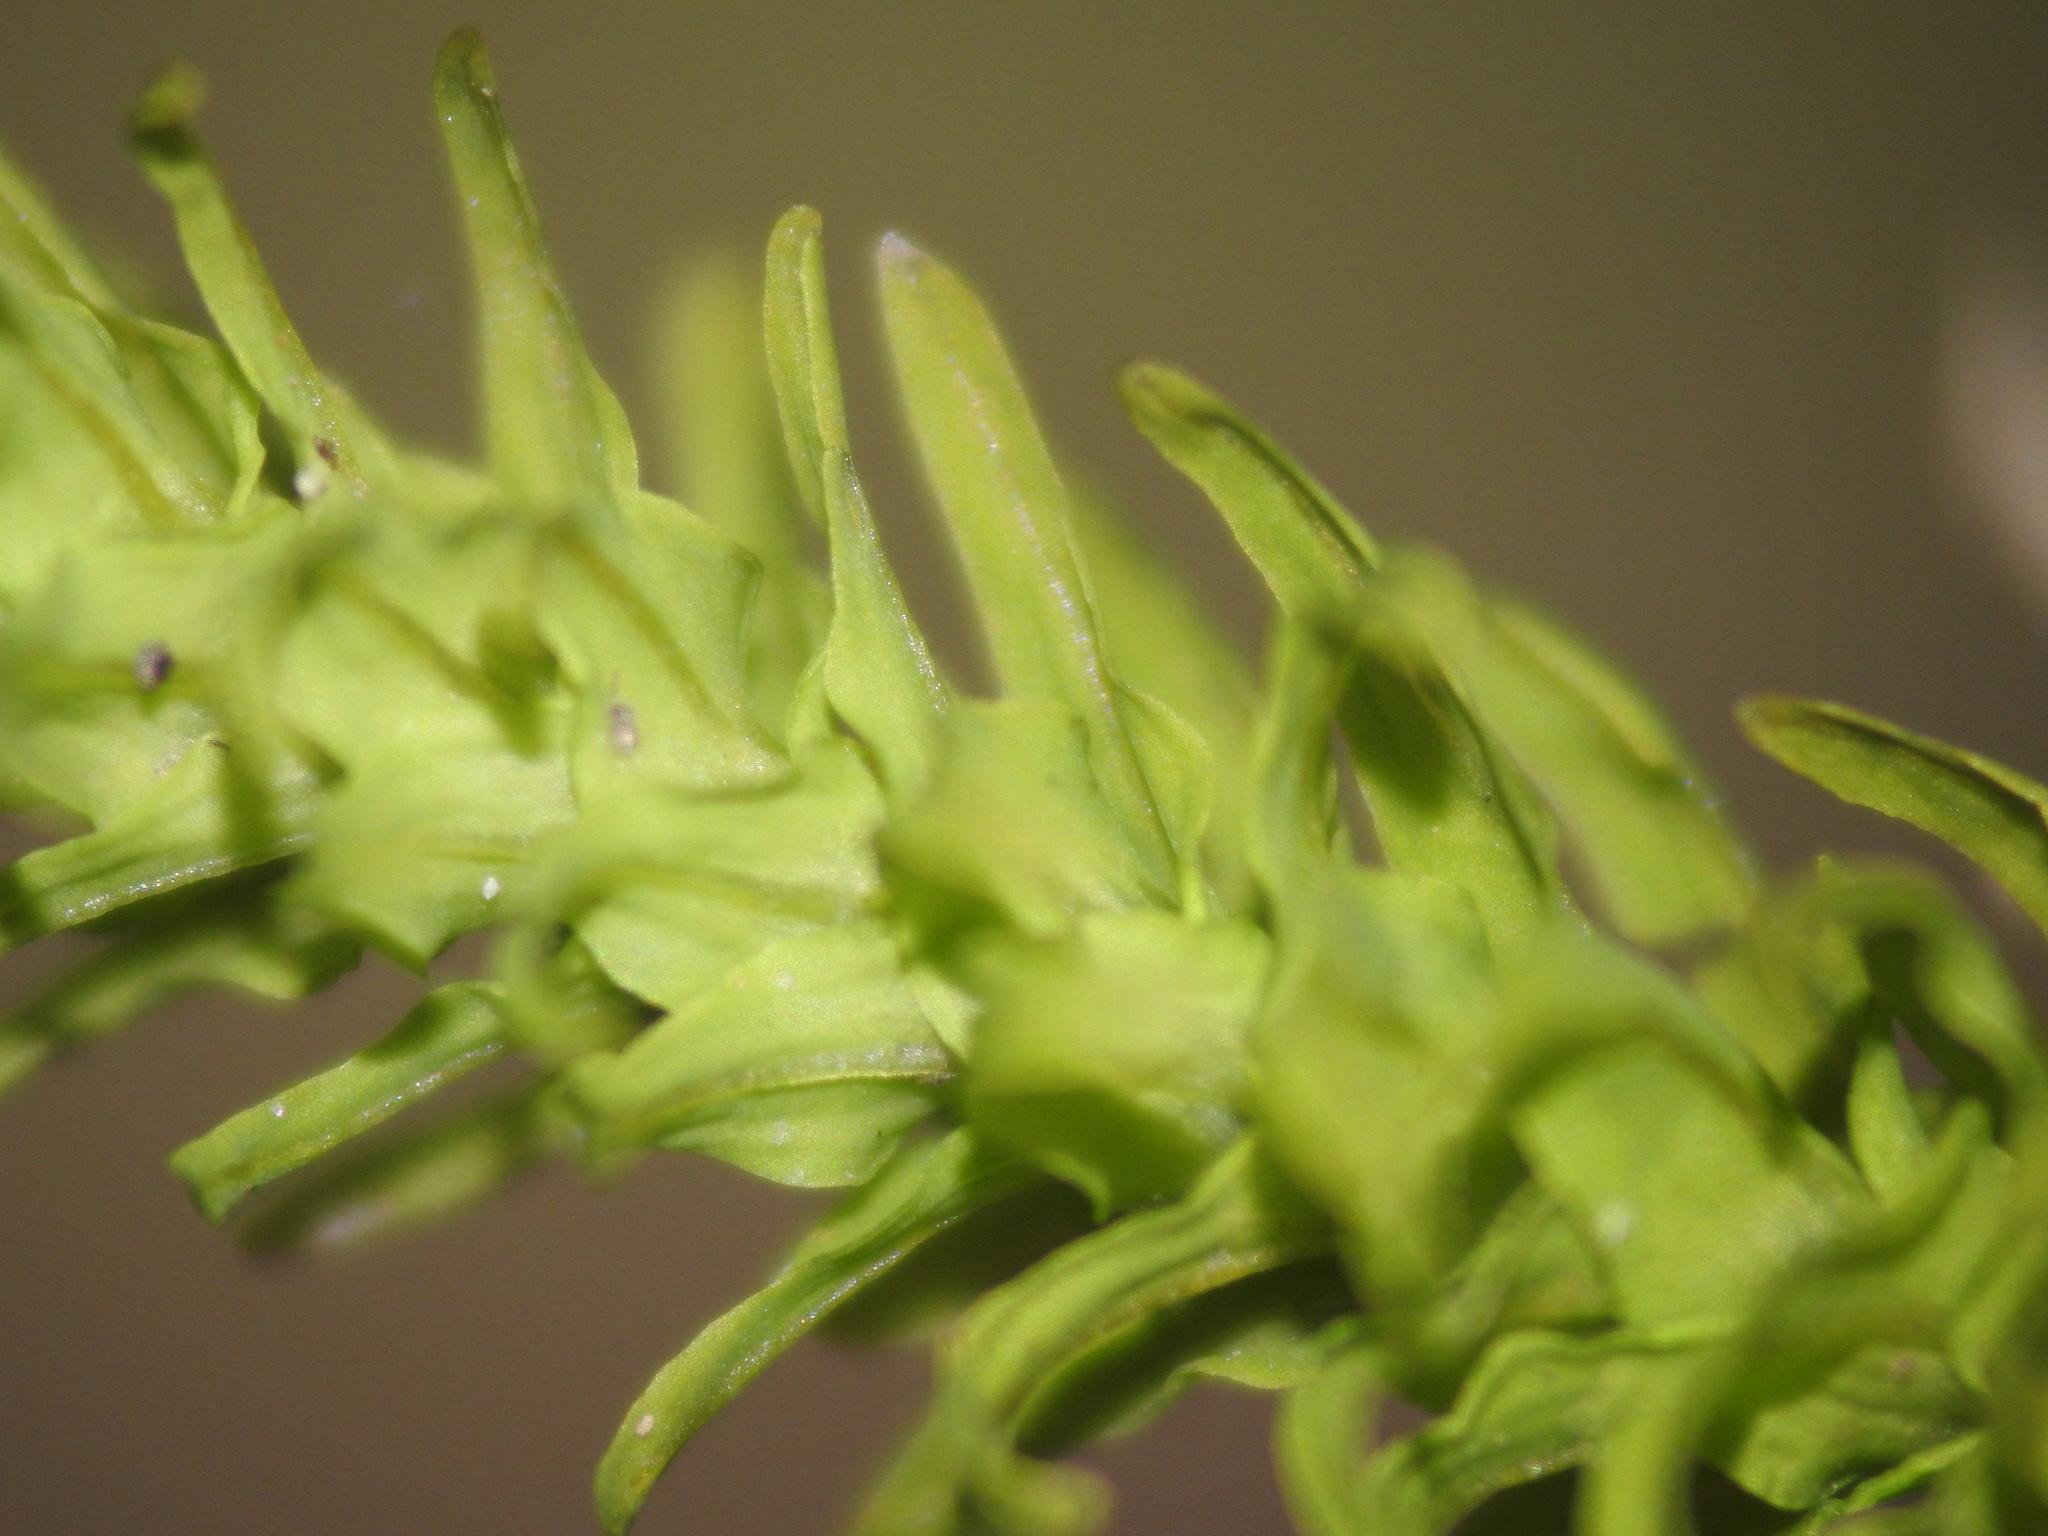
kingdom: Plantae
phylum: Bryophyta
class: Bryopsida
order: Hypnales
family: Anomodontaceae
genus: Anomodon
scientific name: Anomodon viticulosus
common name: Tall anomodon
